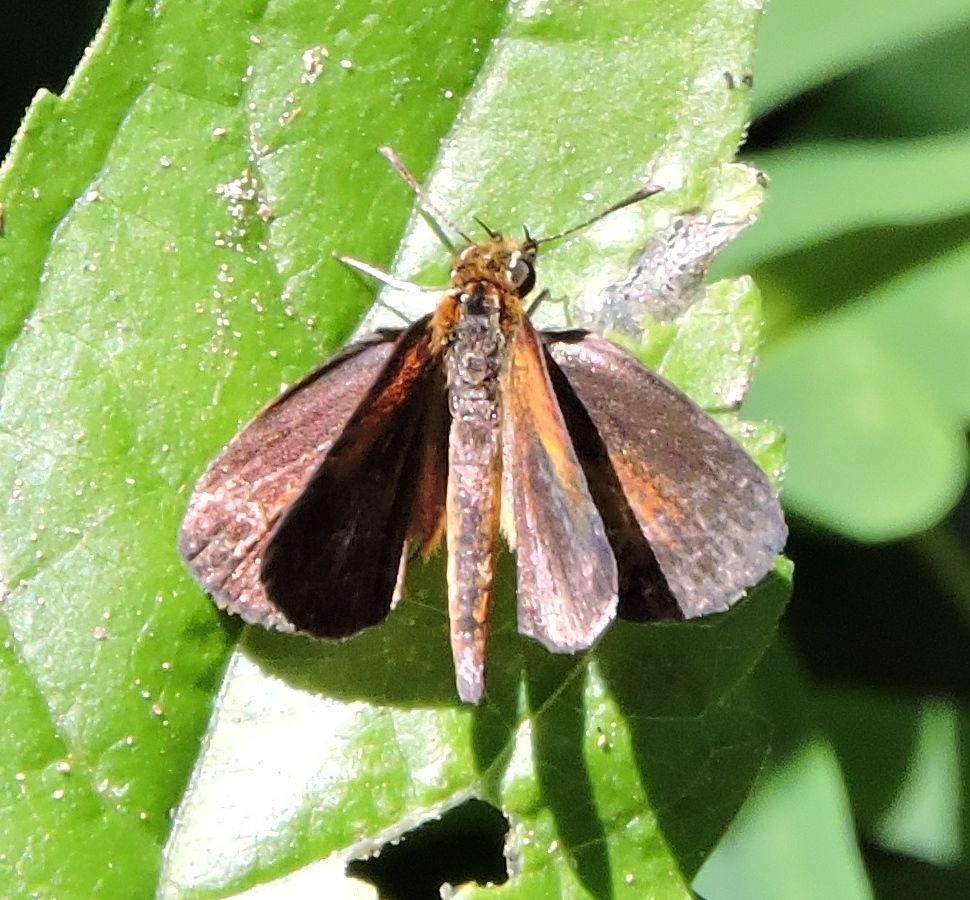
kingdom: Animalia
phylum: Arthropoda
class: Insecta
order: Lepidoptera
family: Hesperiidae
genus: Ancyloxypha
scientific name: Ancyloxypha numitor
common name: Least skipper
